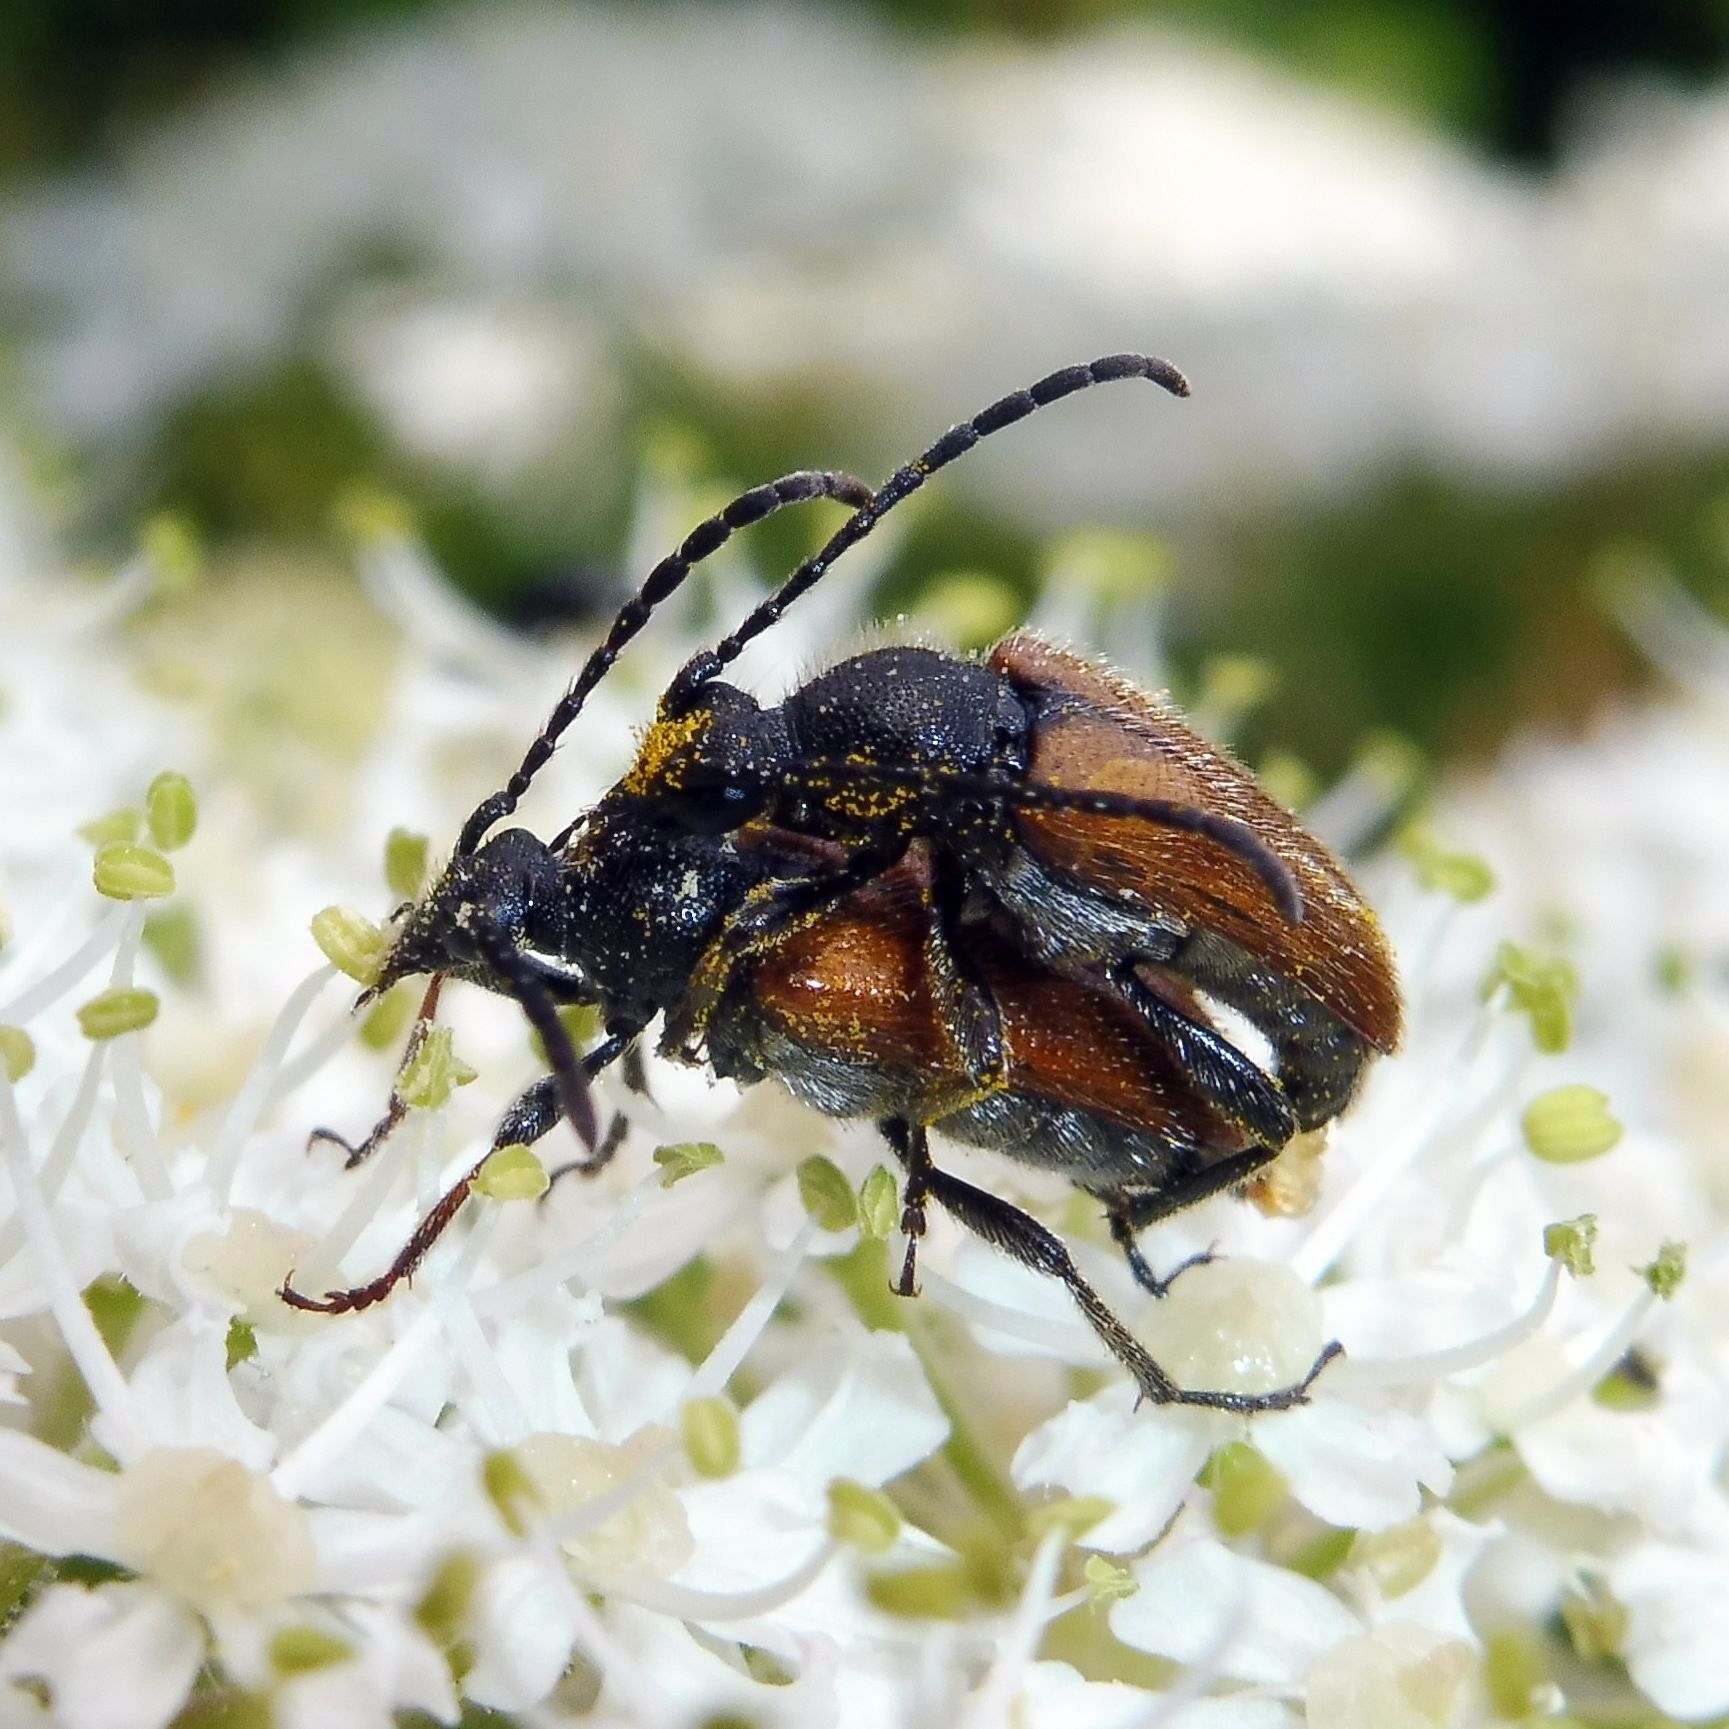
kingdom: Animalia
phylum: Arthropoda
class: Insecta
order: Coleoptera
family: Cerambycidae
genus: Pseudovadonia
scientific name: Pseudovadonia livida
